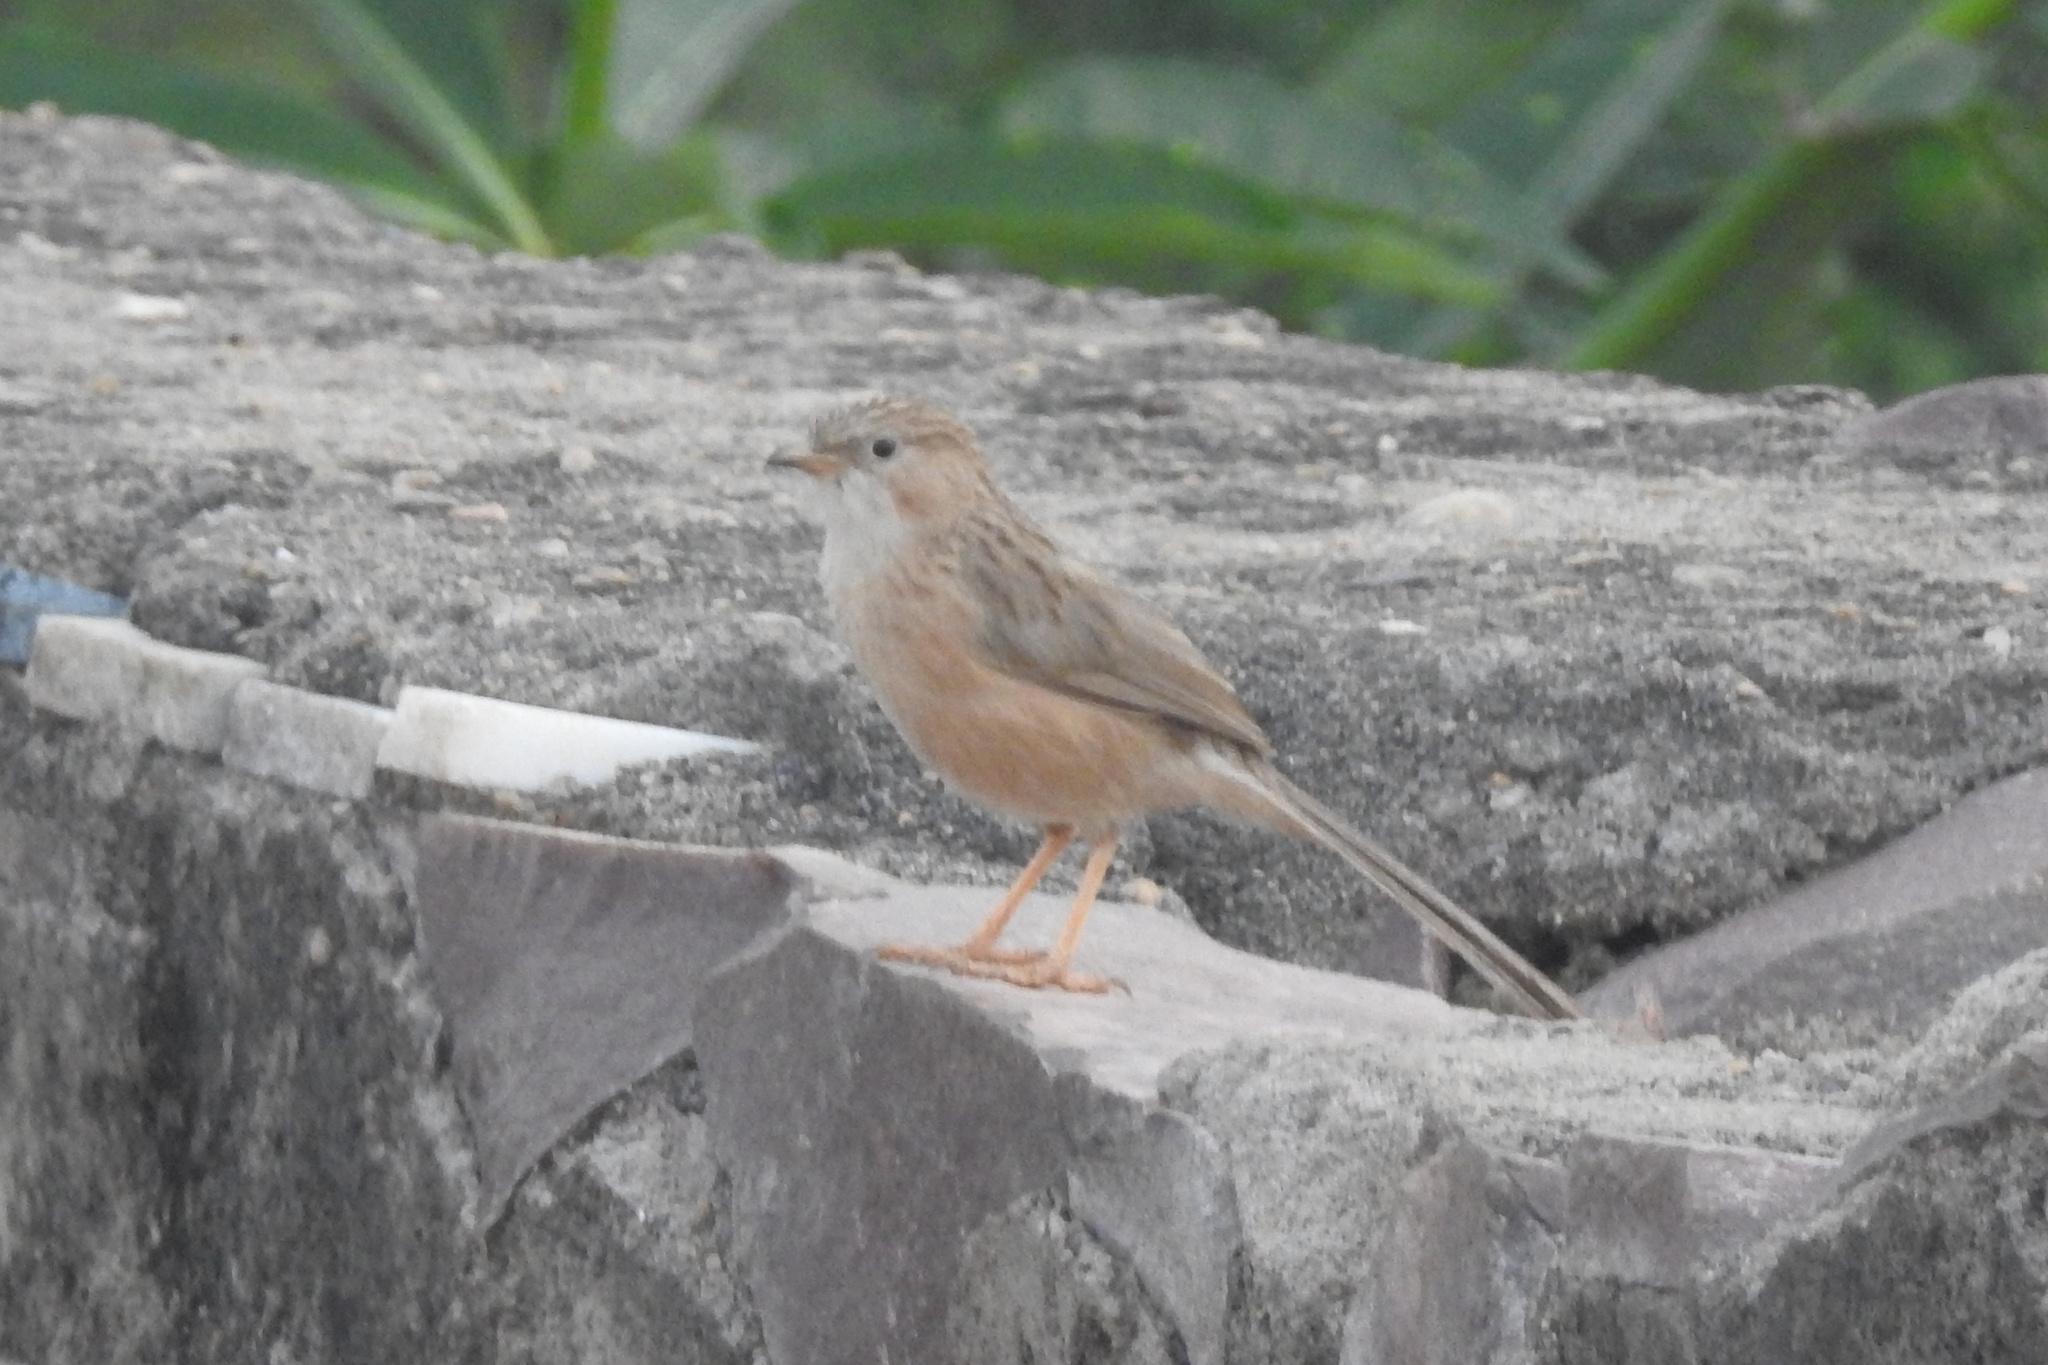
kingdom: Animalia
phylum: Chordata
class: Aves
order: Passeriformes
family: Leiothrichidae
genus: Turdoides
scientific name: Turdoides caudata
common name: Common babbler
